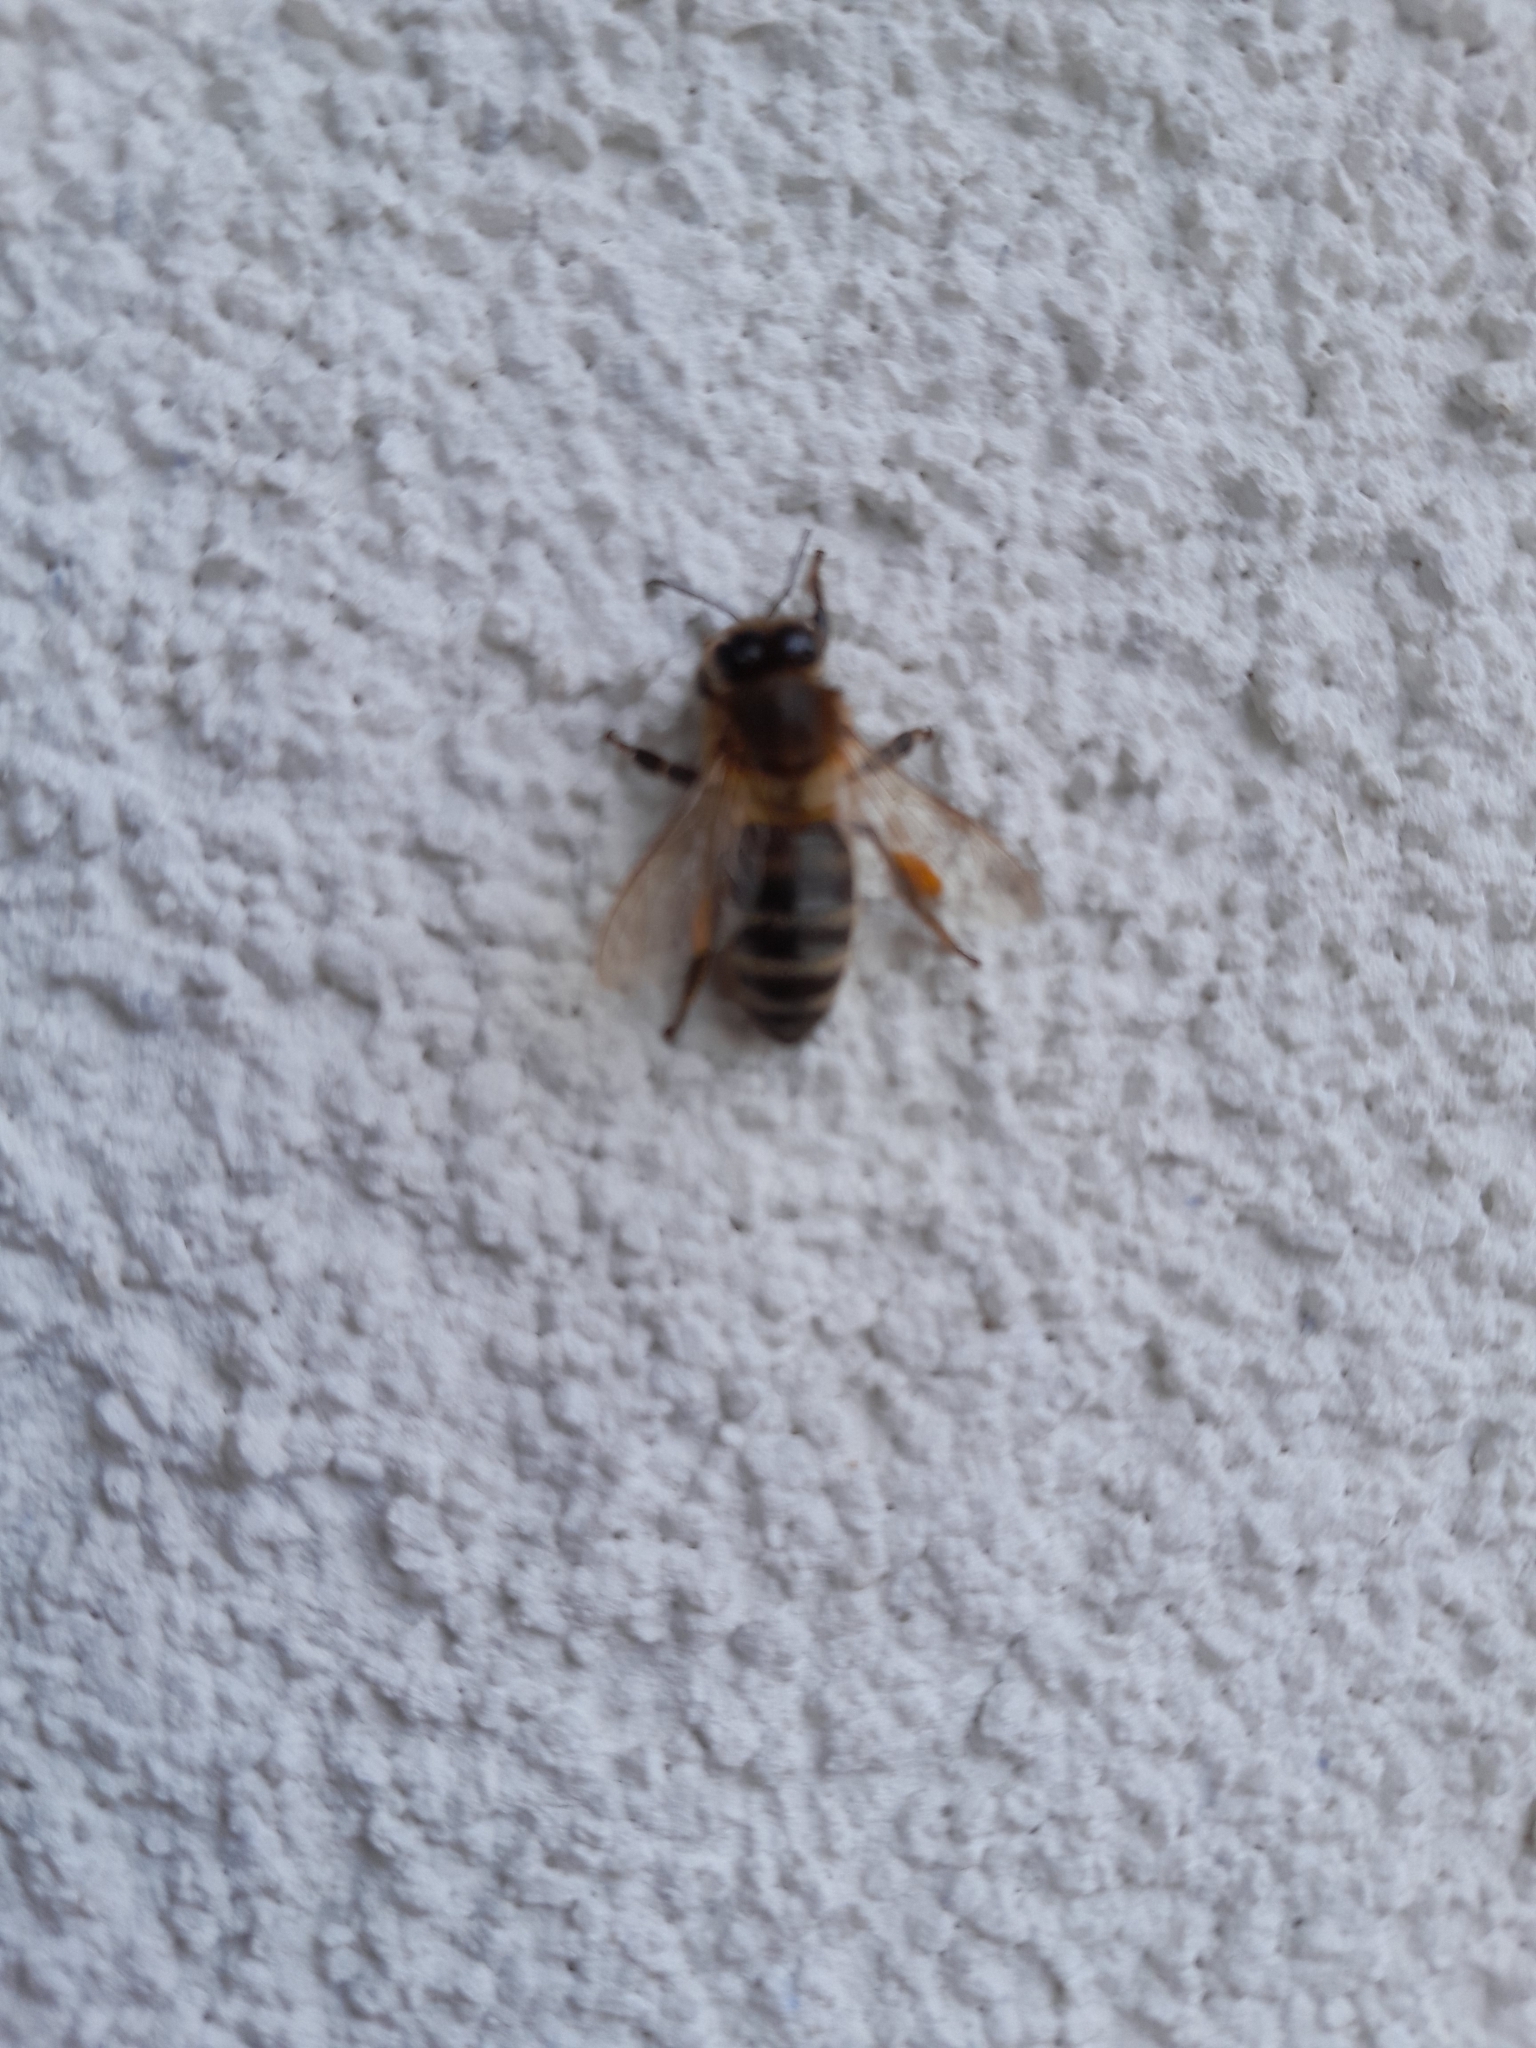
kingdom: Animalia
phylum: Arthropoda
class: Insecta
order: Hymenoptera
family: Apidae
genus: Apis
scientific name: Apis mellifera
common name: Honey bee
